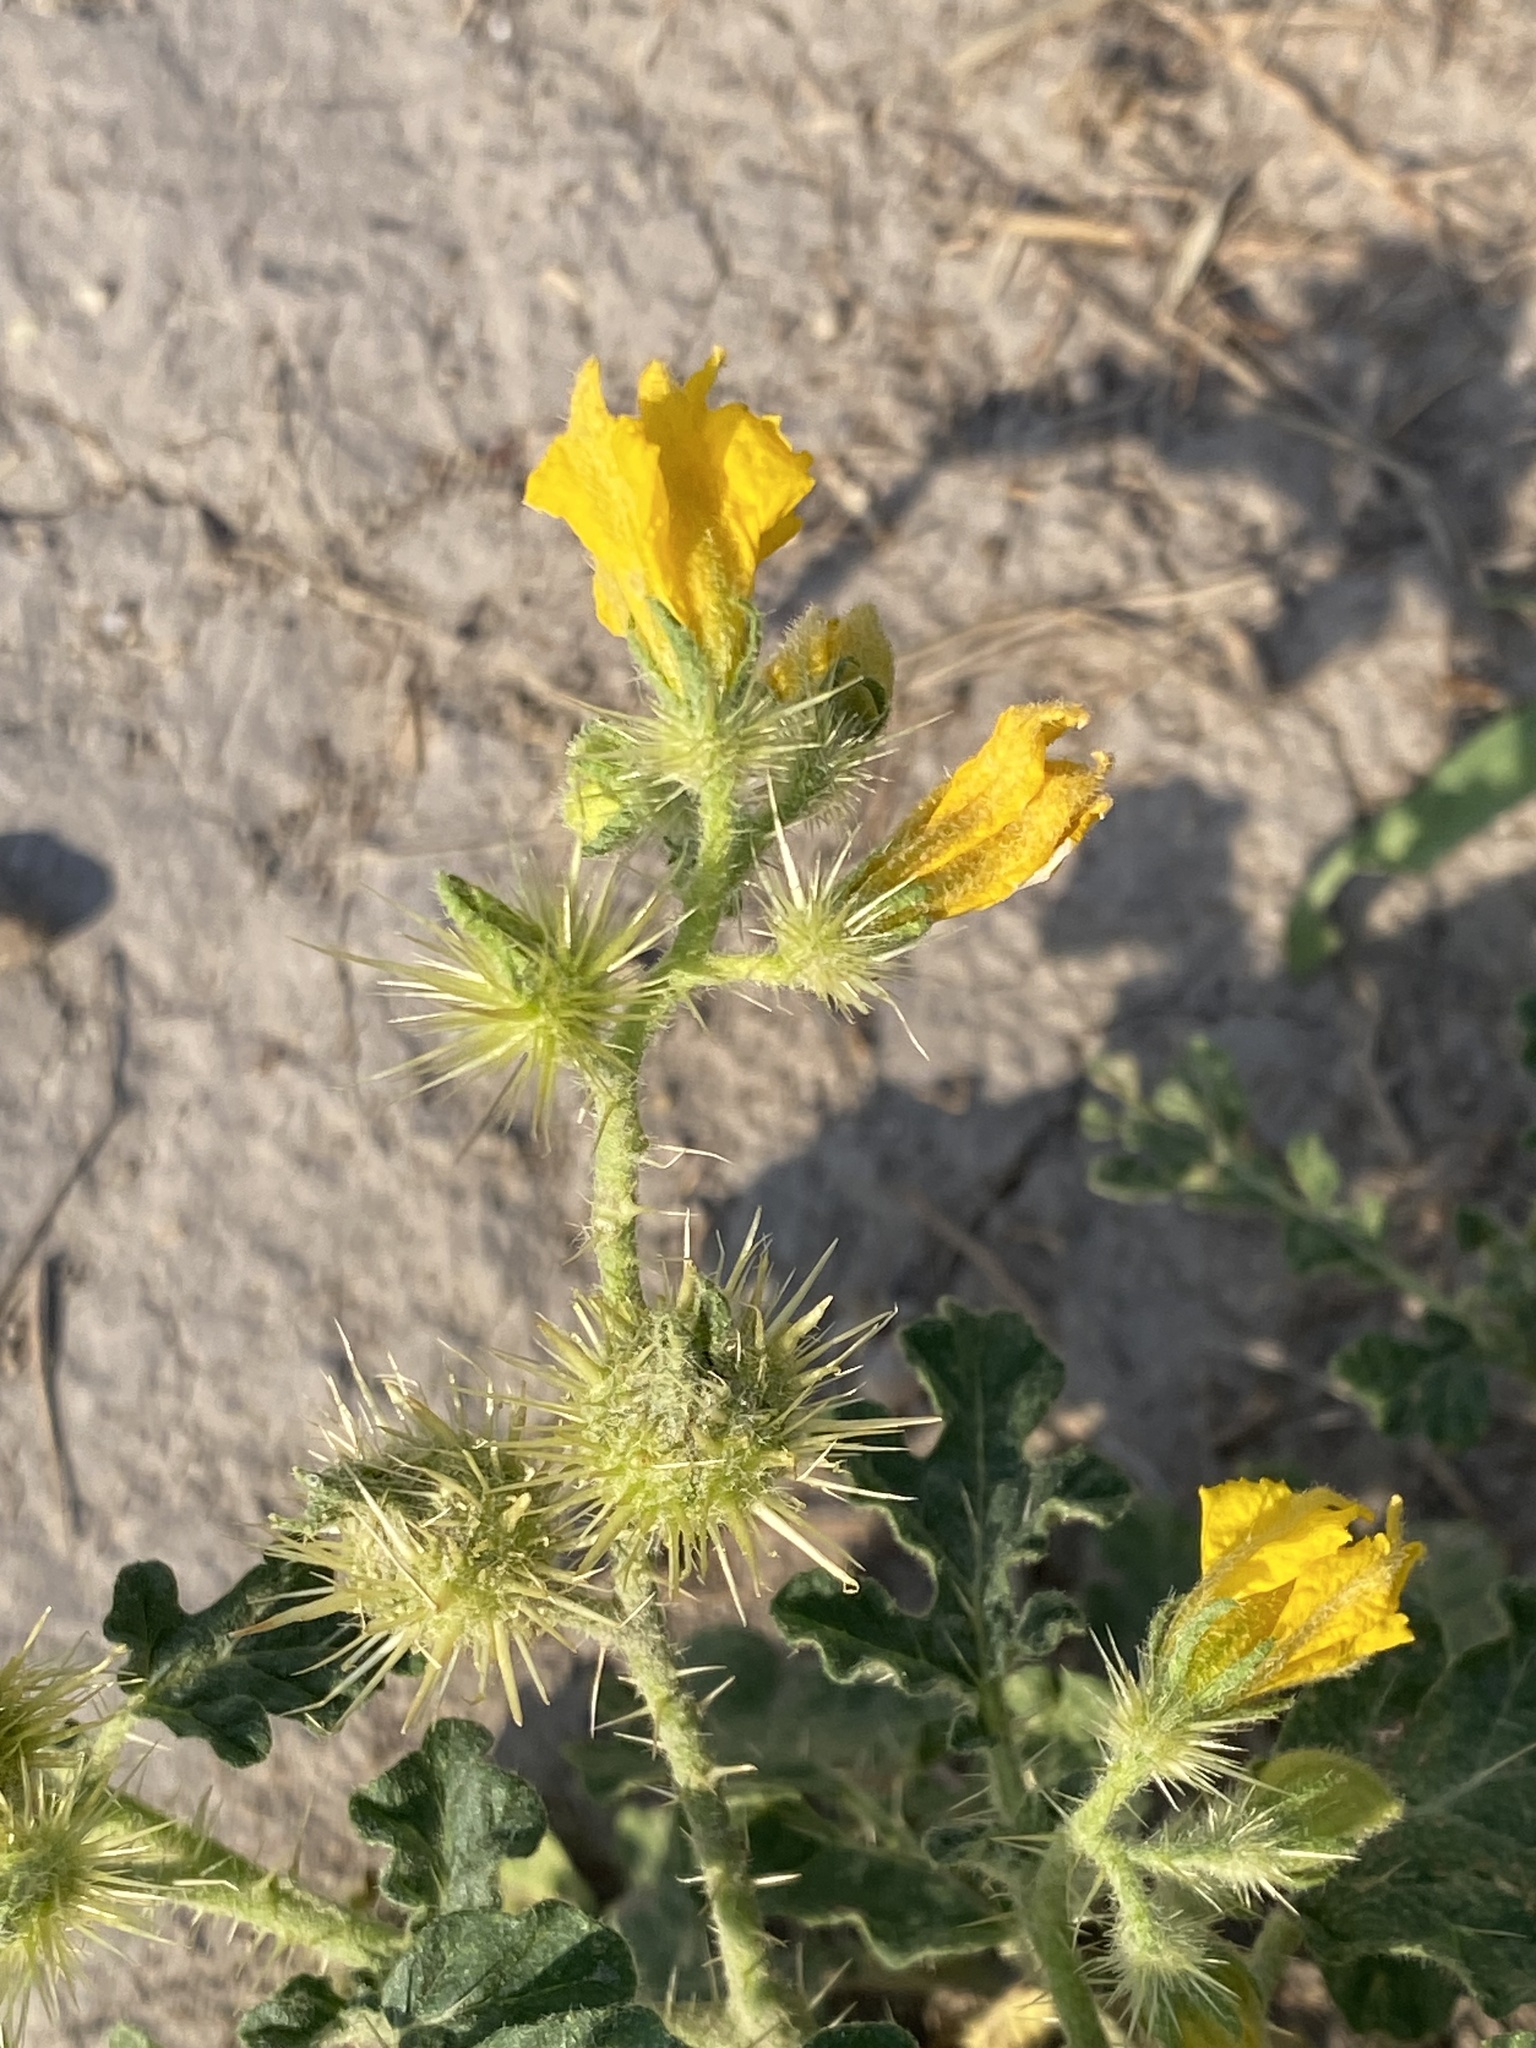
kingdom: Plantae
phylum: Tracheophyta
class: Magnoliopsida
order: Solanales
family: Solanaceae
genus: Solanum
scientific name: Solanum angustifolium
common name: Buffalobur nightshade
